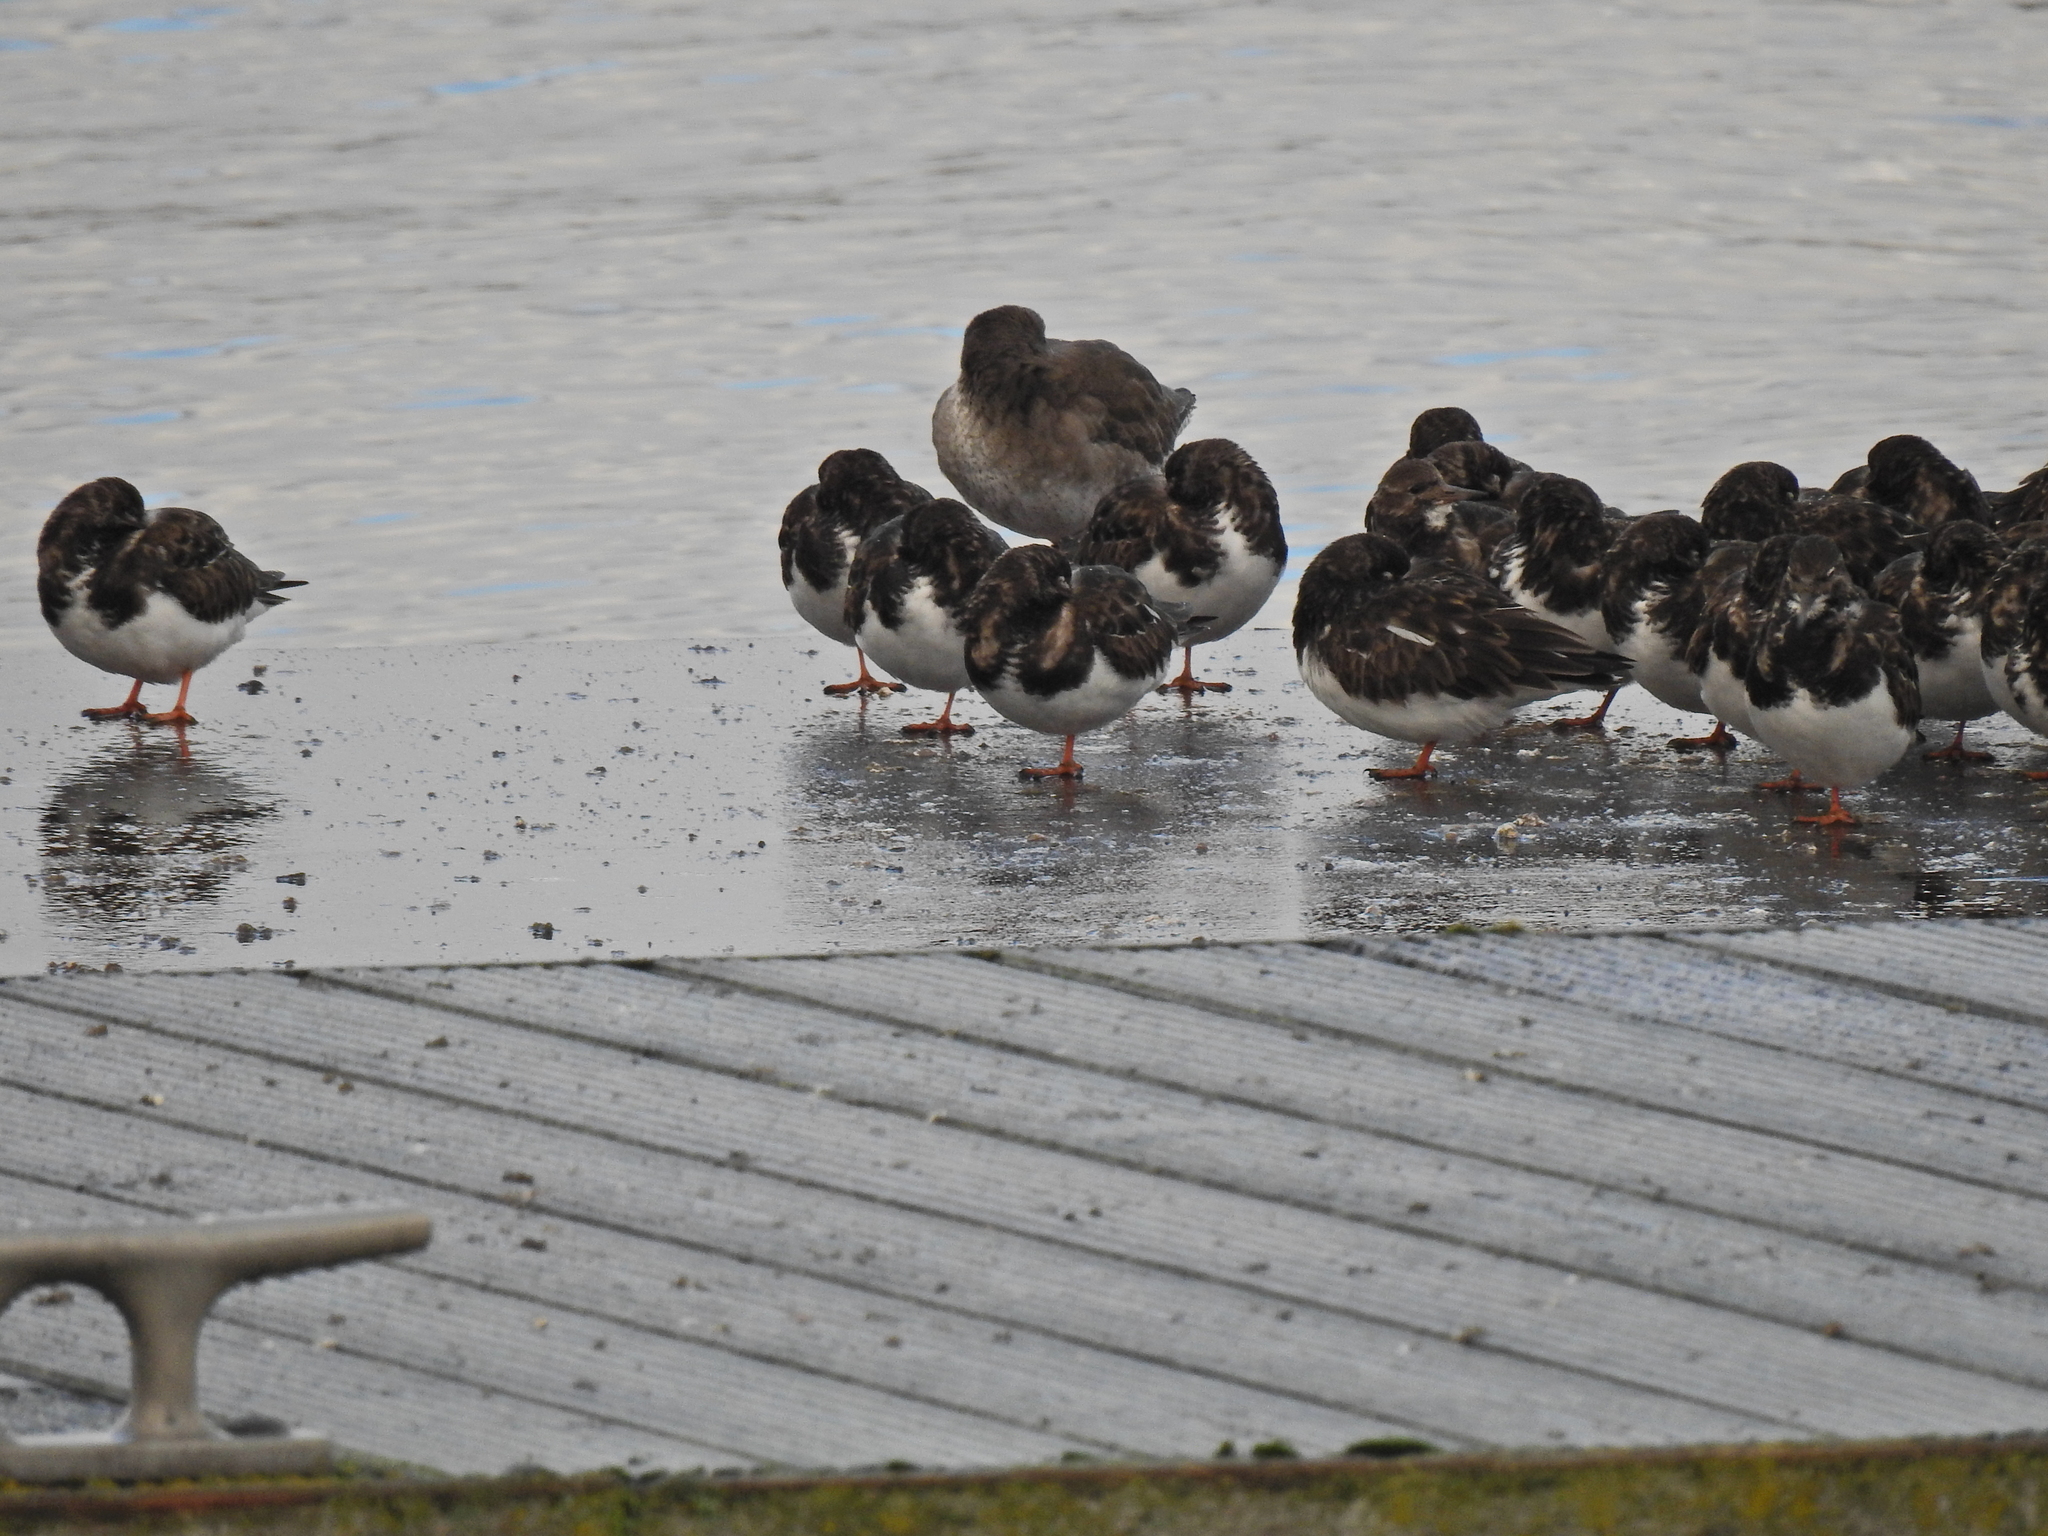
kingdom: Animalia
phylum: Chordata
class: Aves
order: Charadriiformes
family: Scolopacidae
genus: Arenaria
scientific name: Arenaria interpres
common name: Ruddy turnstone
